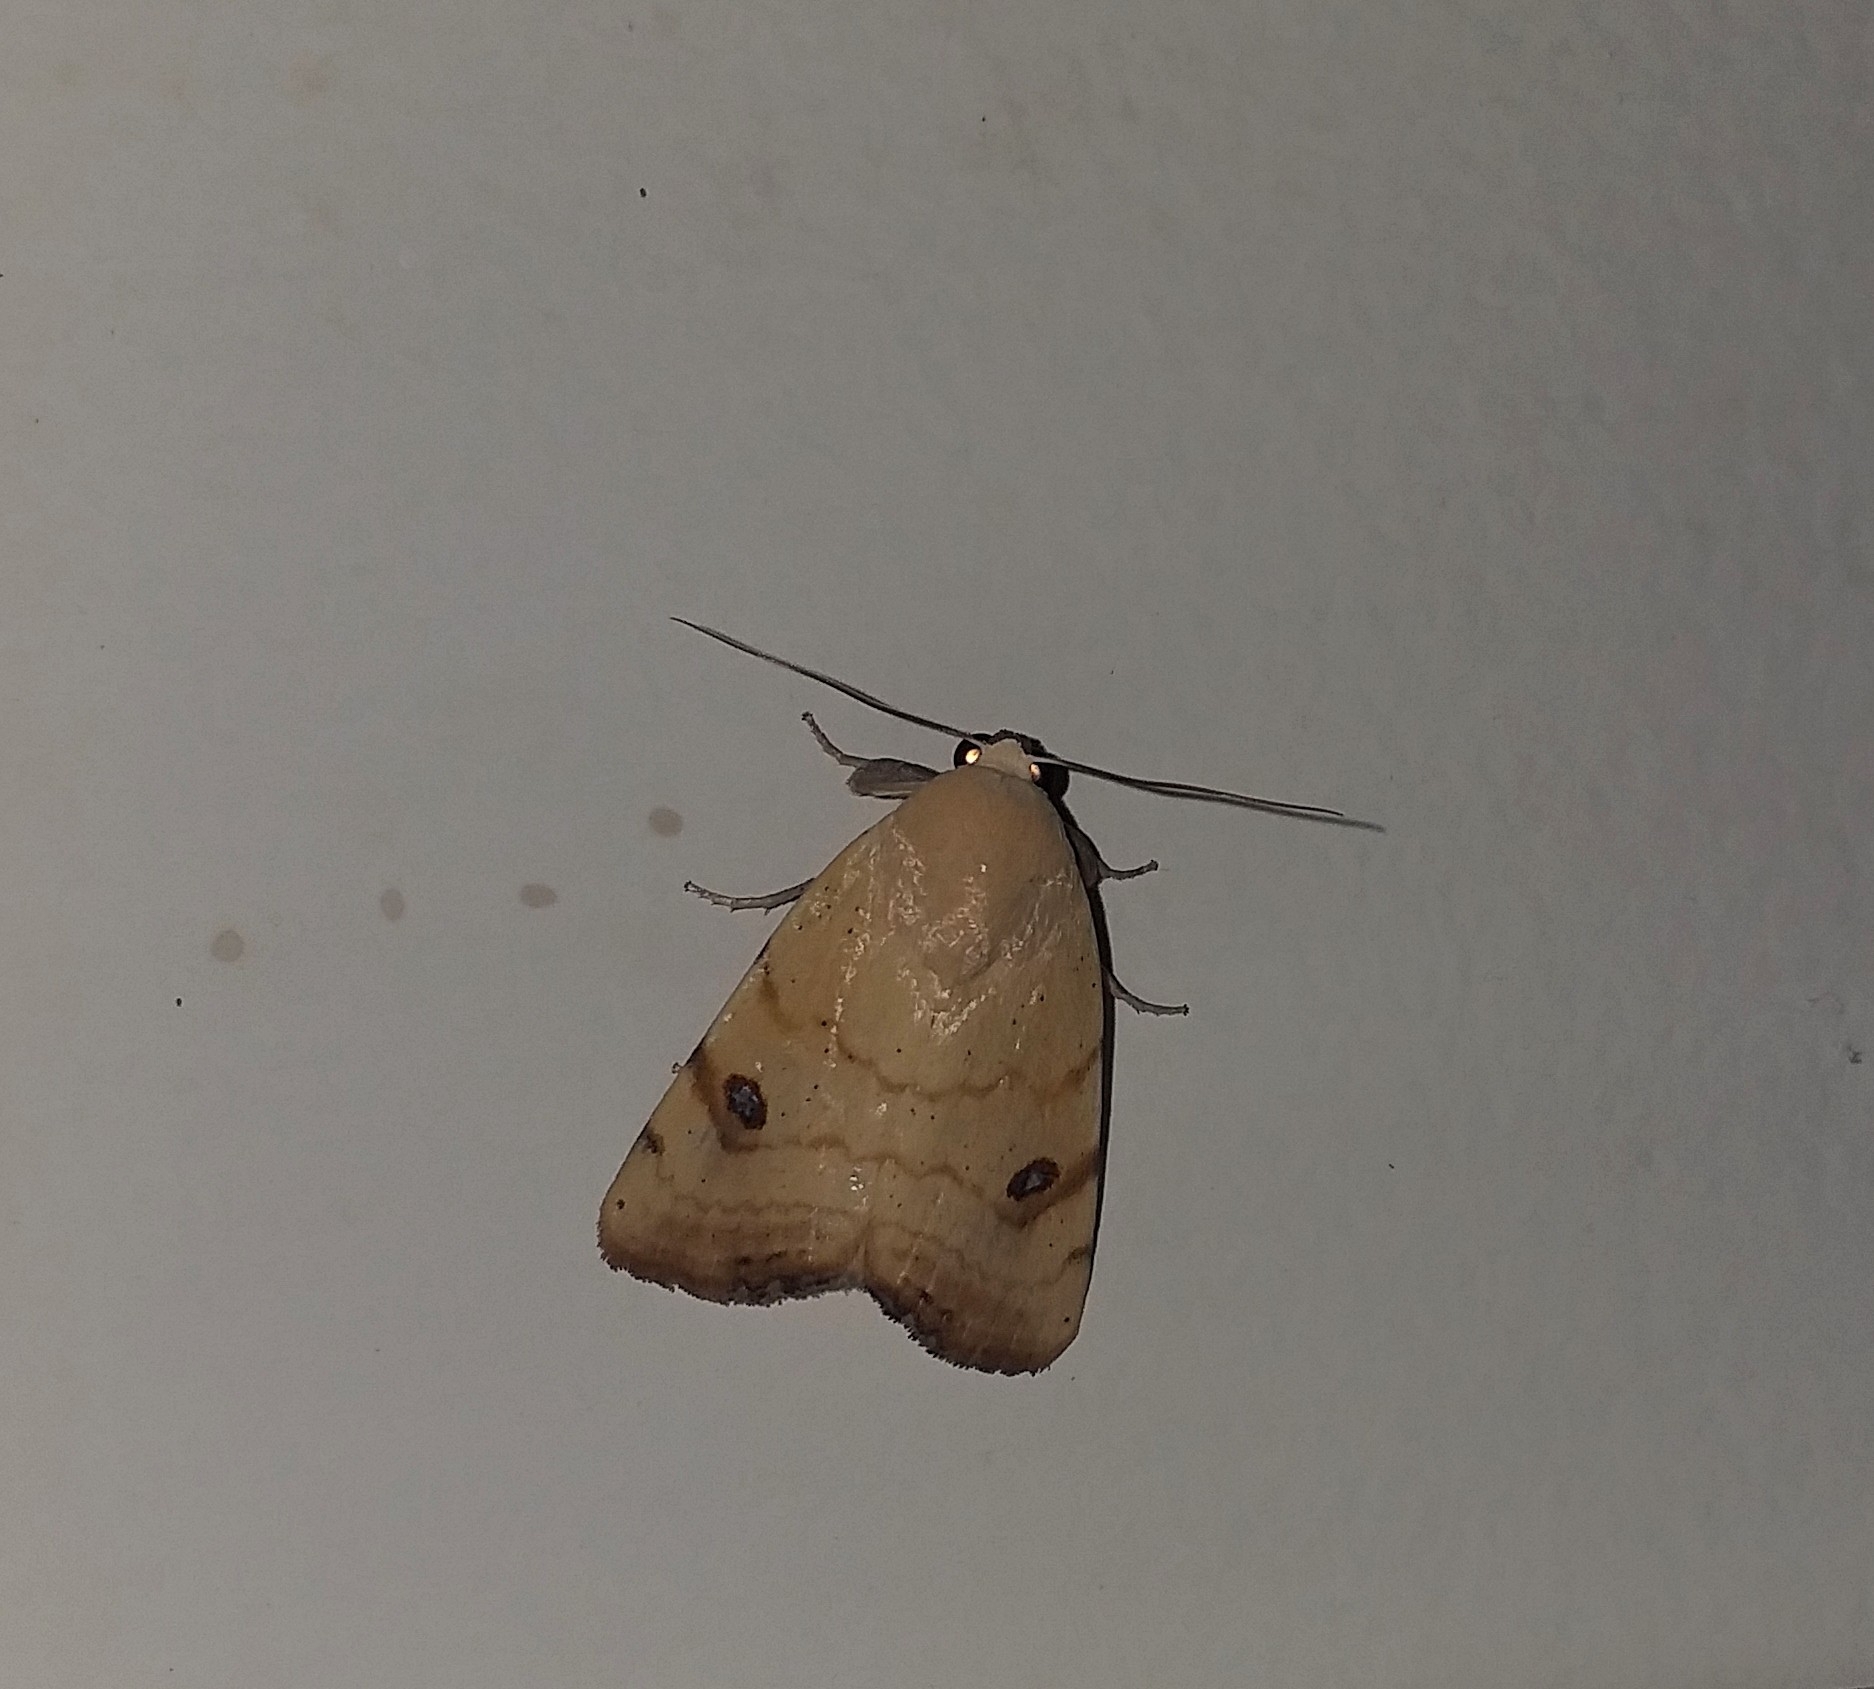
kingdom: Animalia
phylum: Arthropoda
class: Insecta
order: Lepidoptera
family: Nolidae
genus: Xanthodes
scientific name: Xanthodes albago
